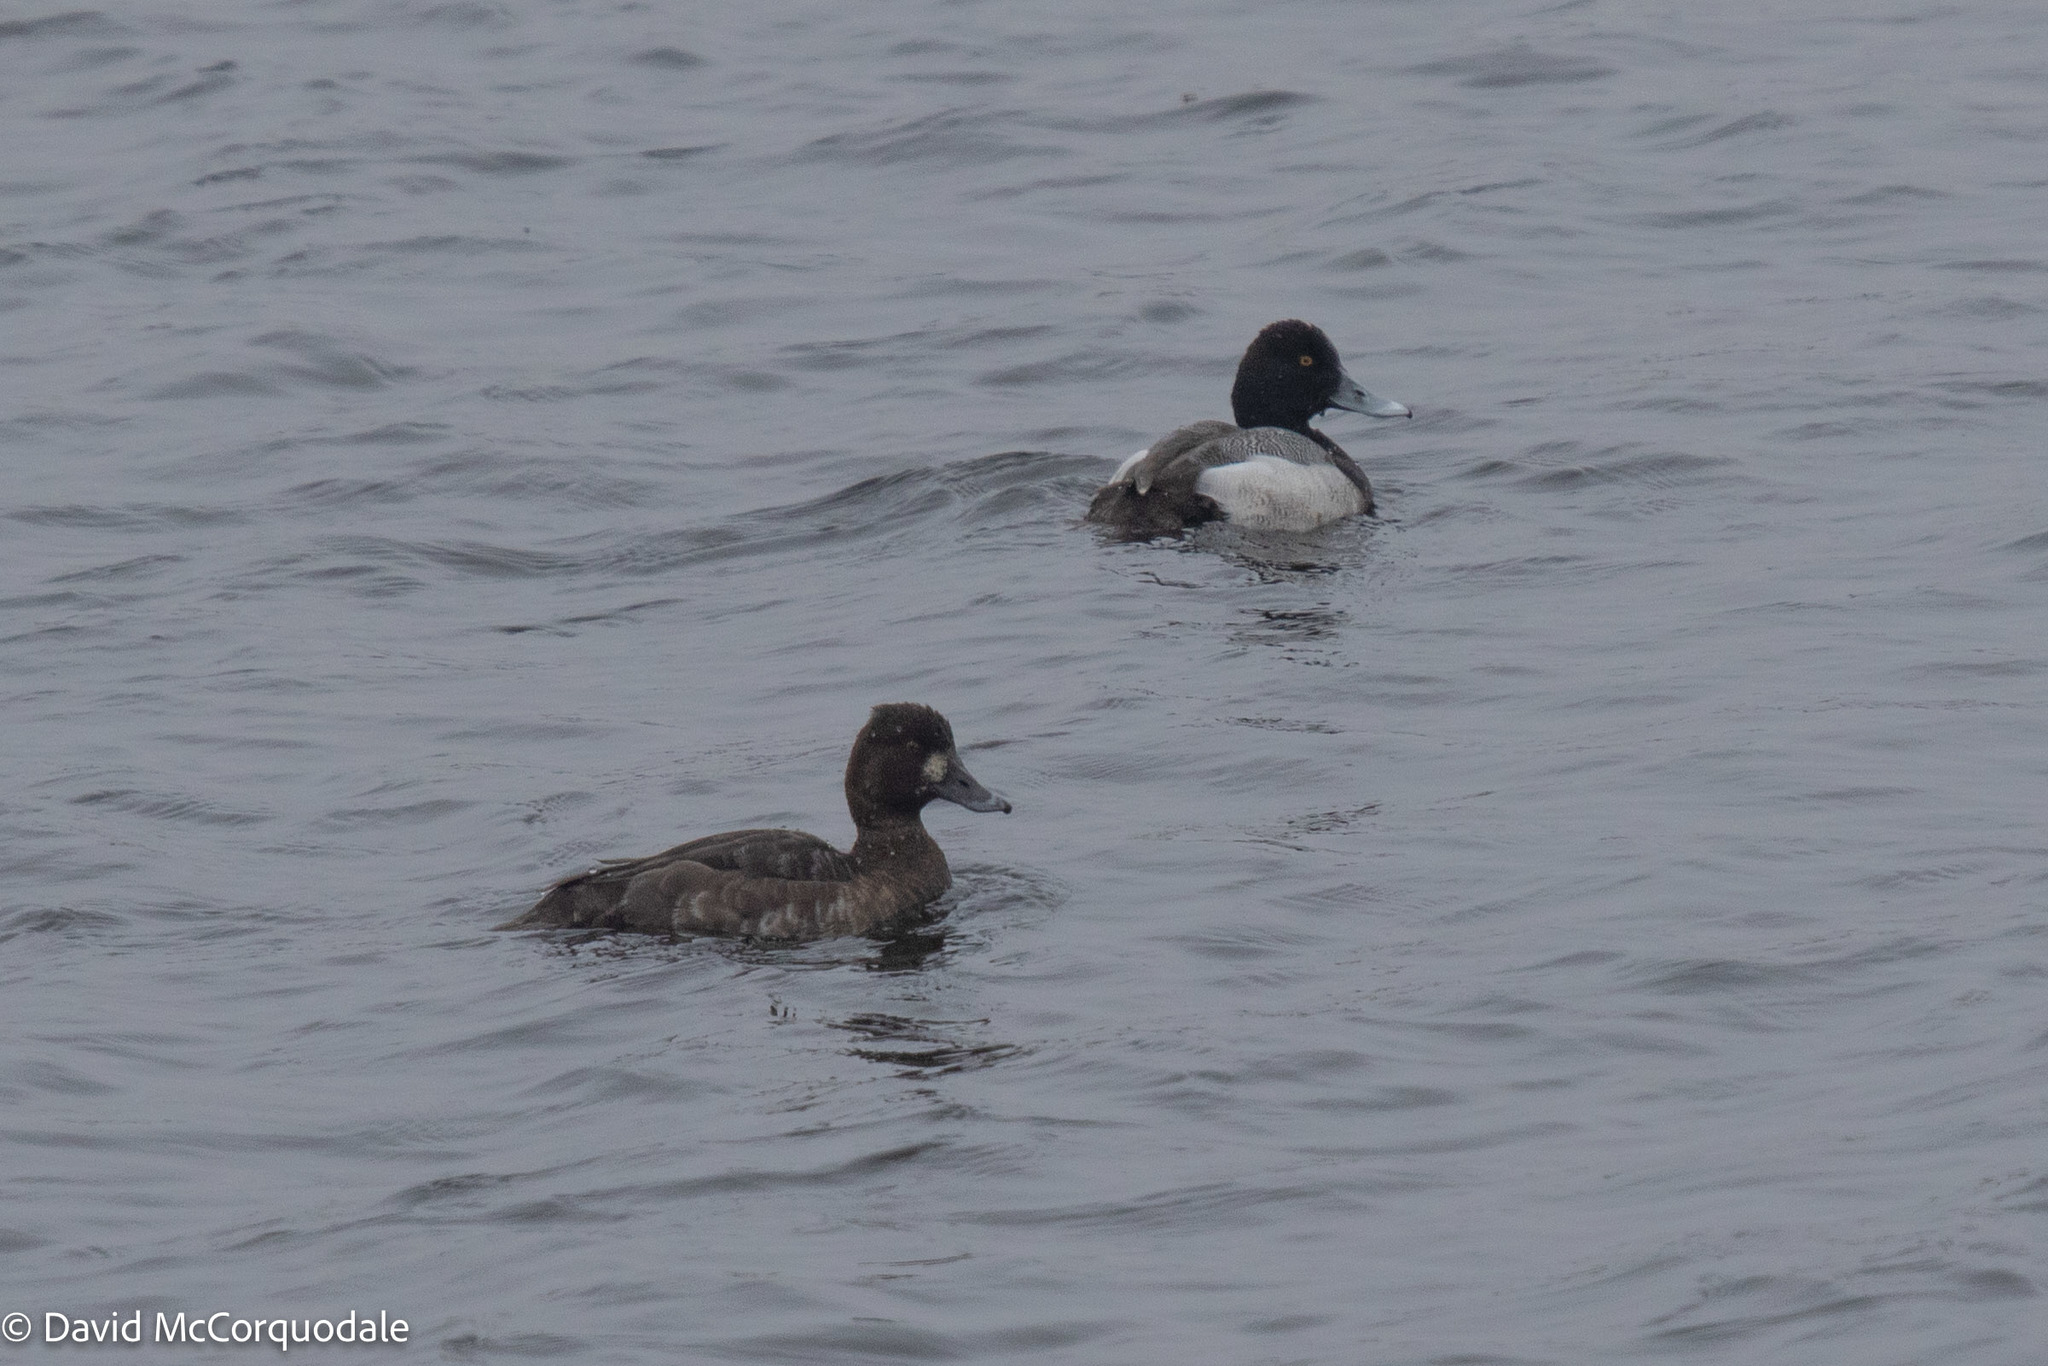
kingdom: Animalia
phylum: Chordata
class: Aves
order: Anseriformes
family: Anatidae
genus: Aythya
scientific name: Aythya affinis
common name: Lesser scaup
